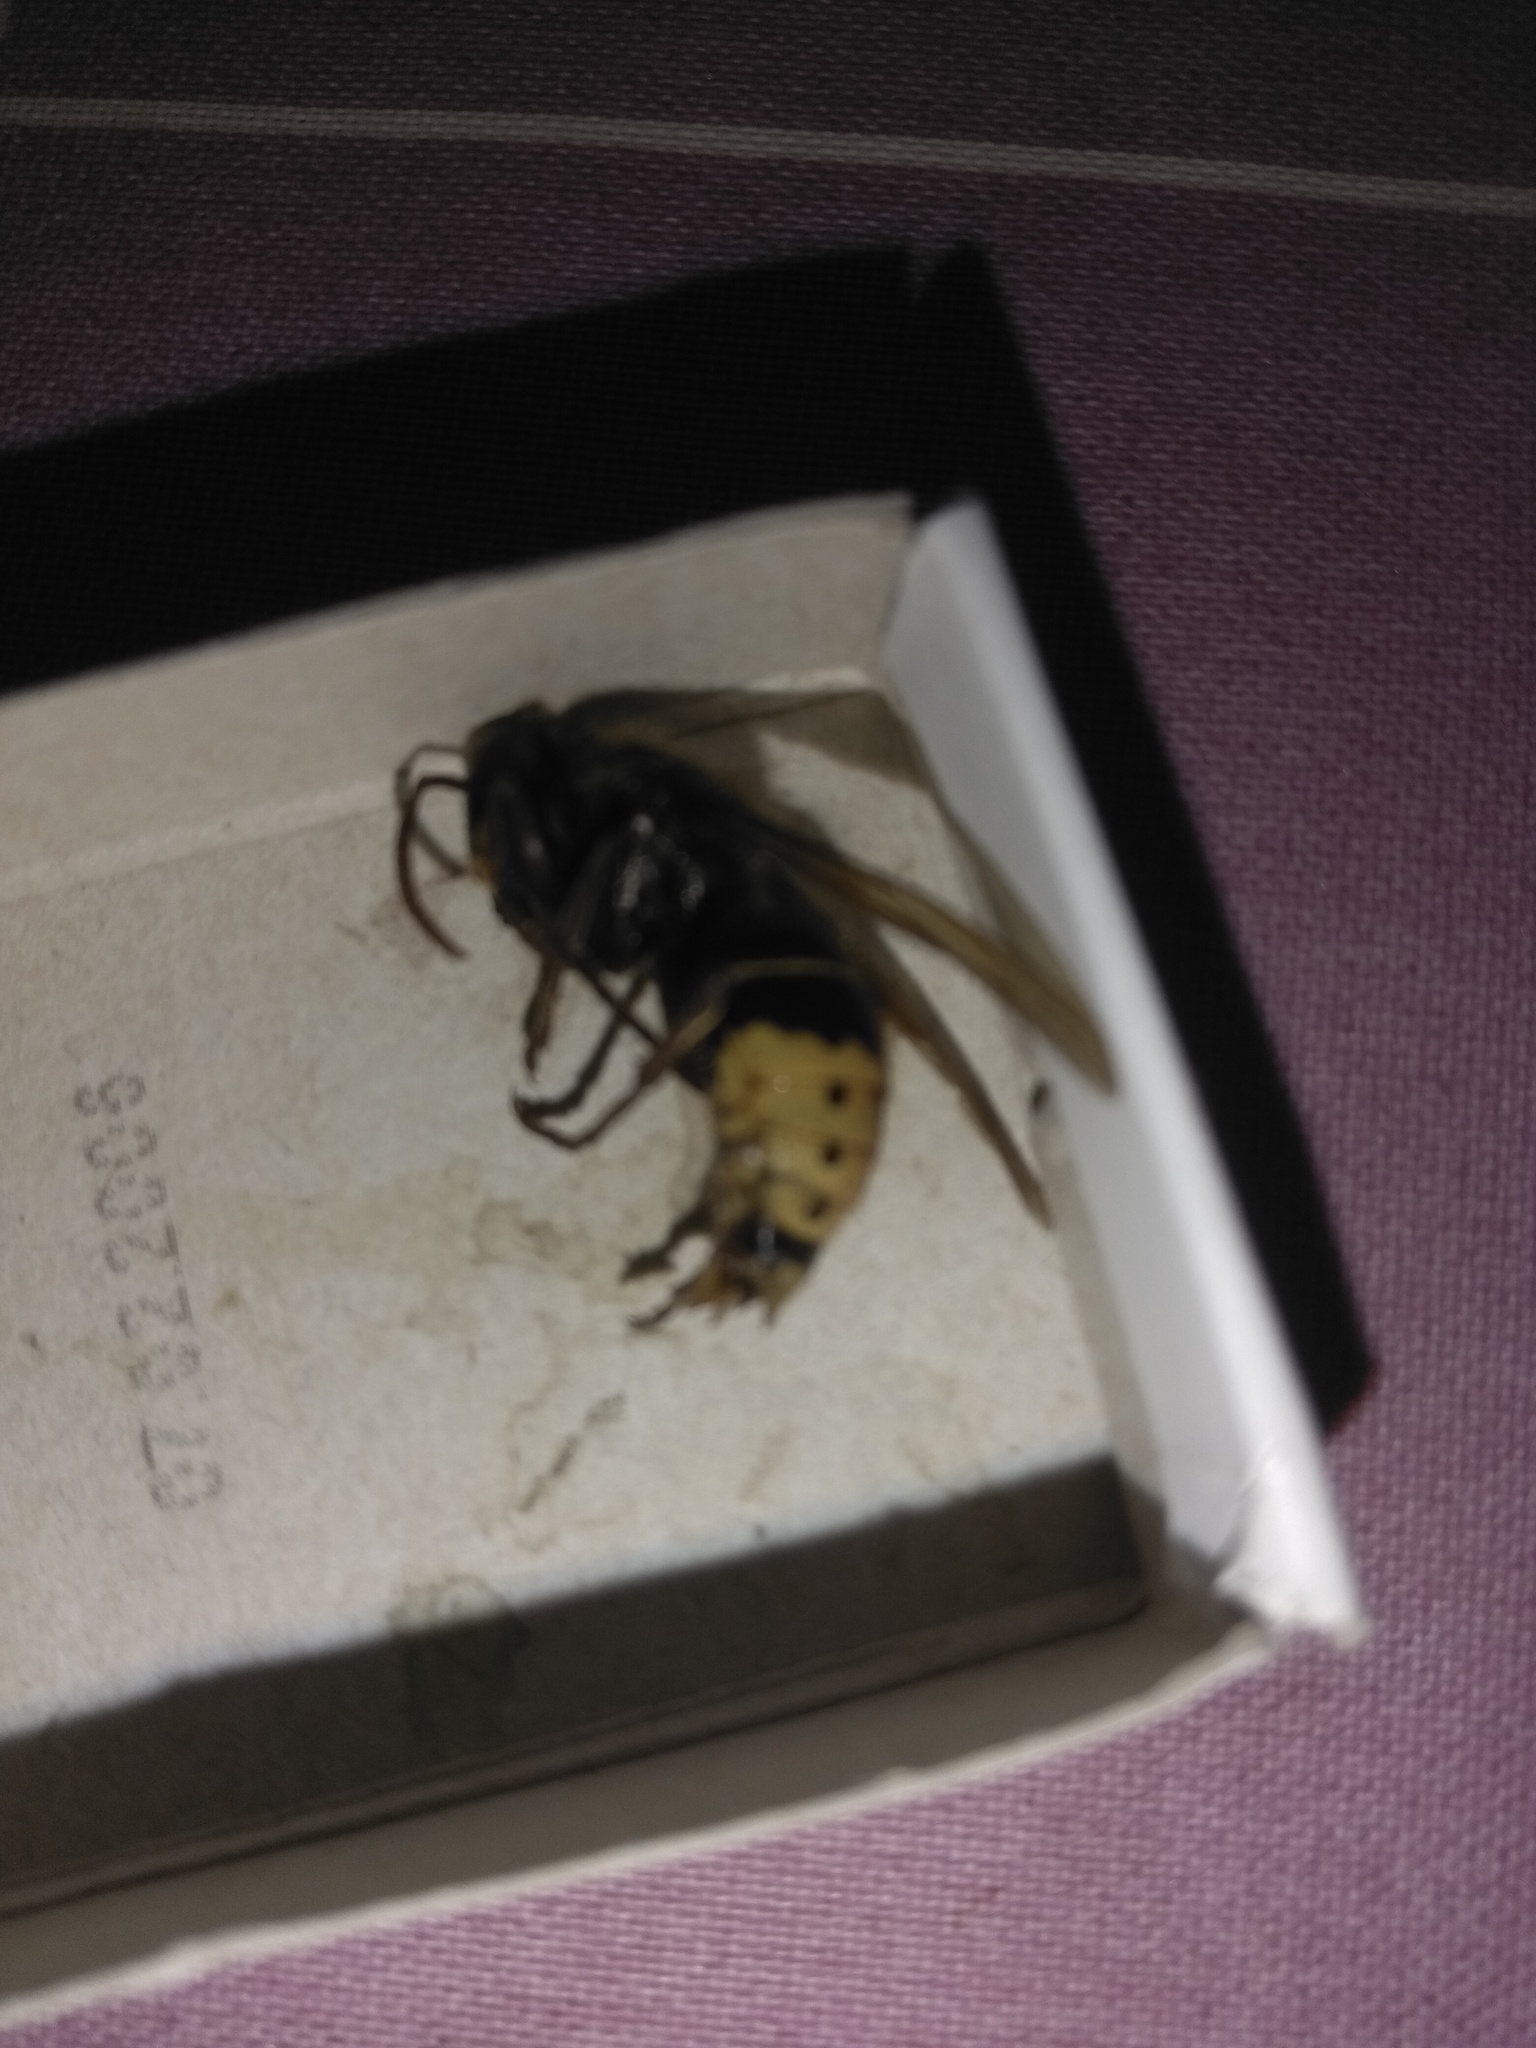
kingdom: Animalia
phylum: Arthropoda
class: Insecta
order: Hymenoptera
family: Vespidae
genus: Vespa
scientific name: Vespa crabro
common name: Hornet
